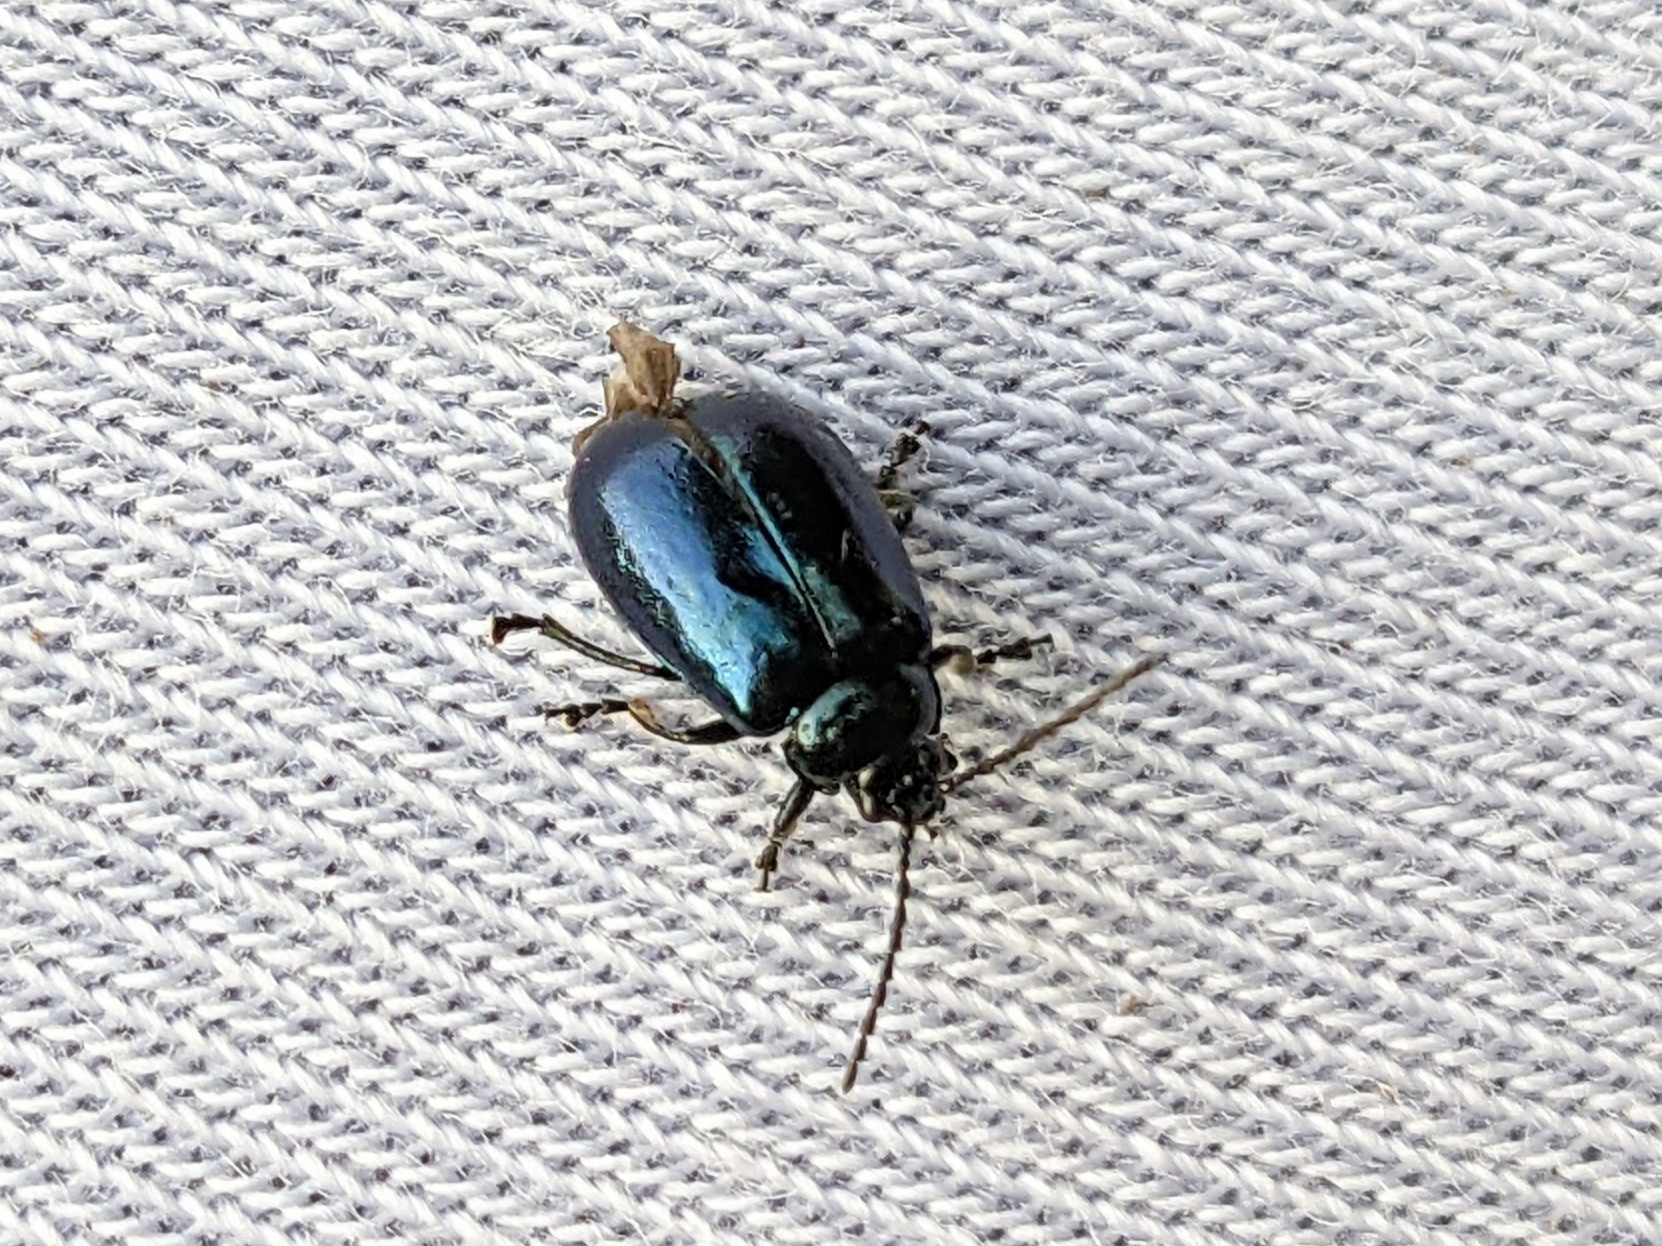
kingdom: Animalia
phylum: Arthropoda
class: Insecta
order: Coleoptera
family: Chrysomelidae
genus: Agelastica
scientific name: Agelastica alni
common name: Alder leaf beetle
